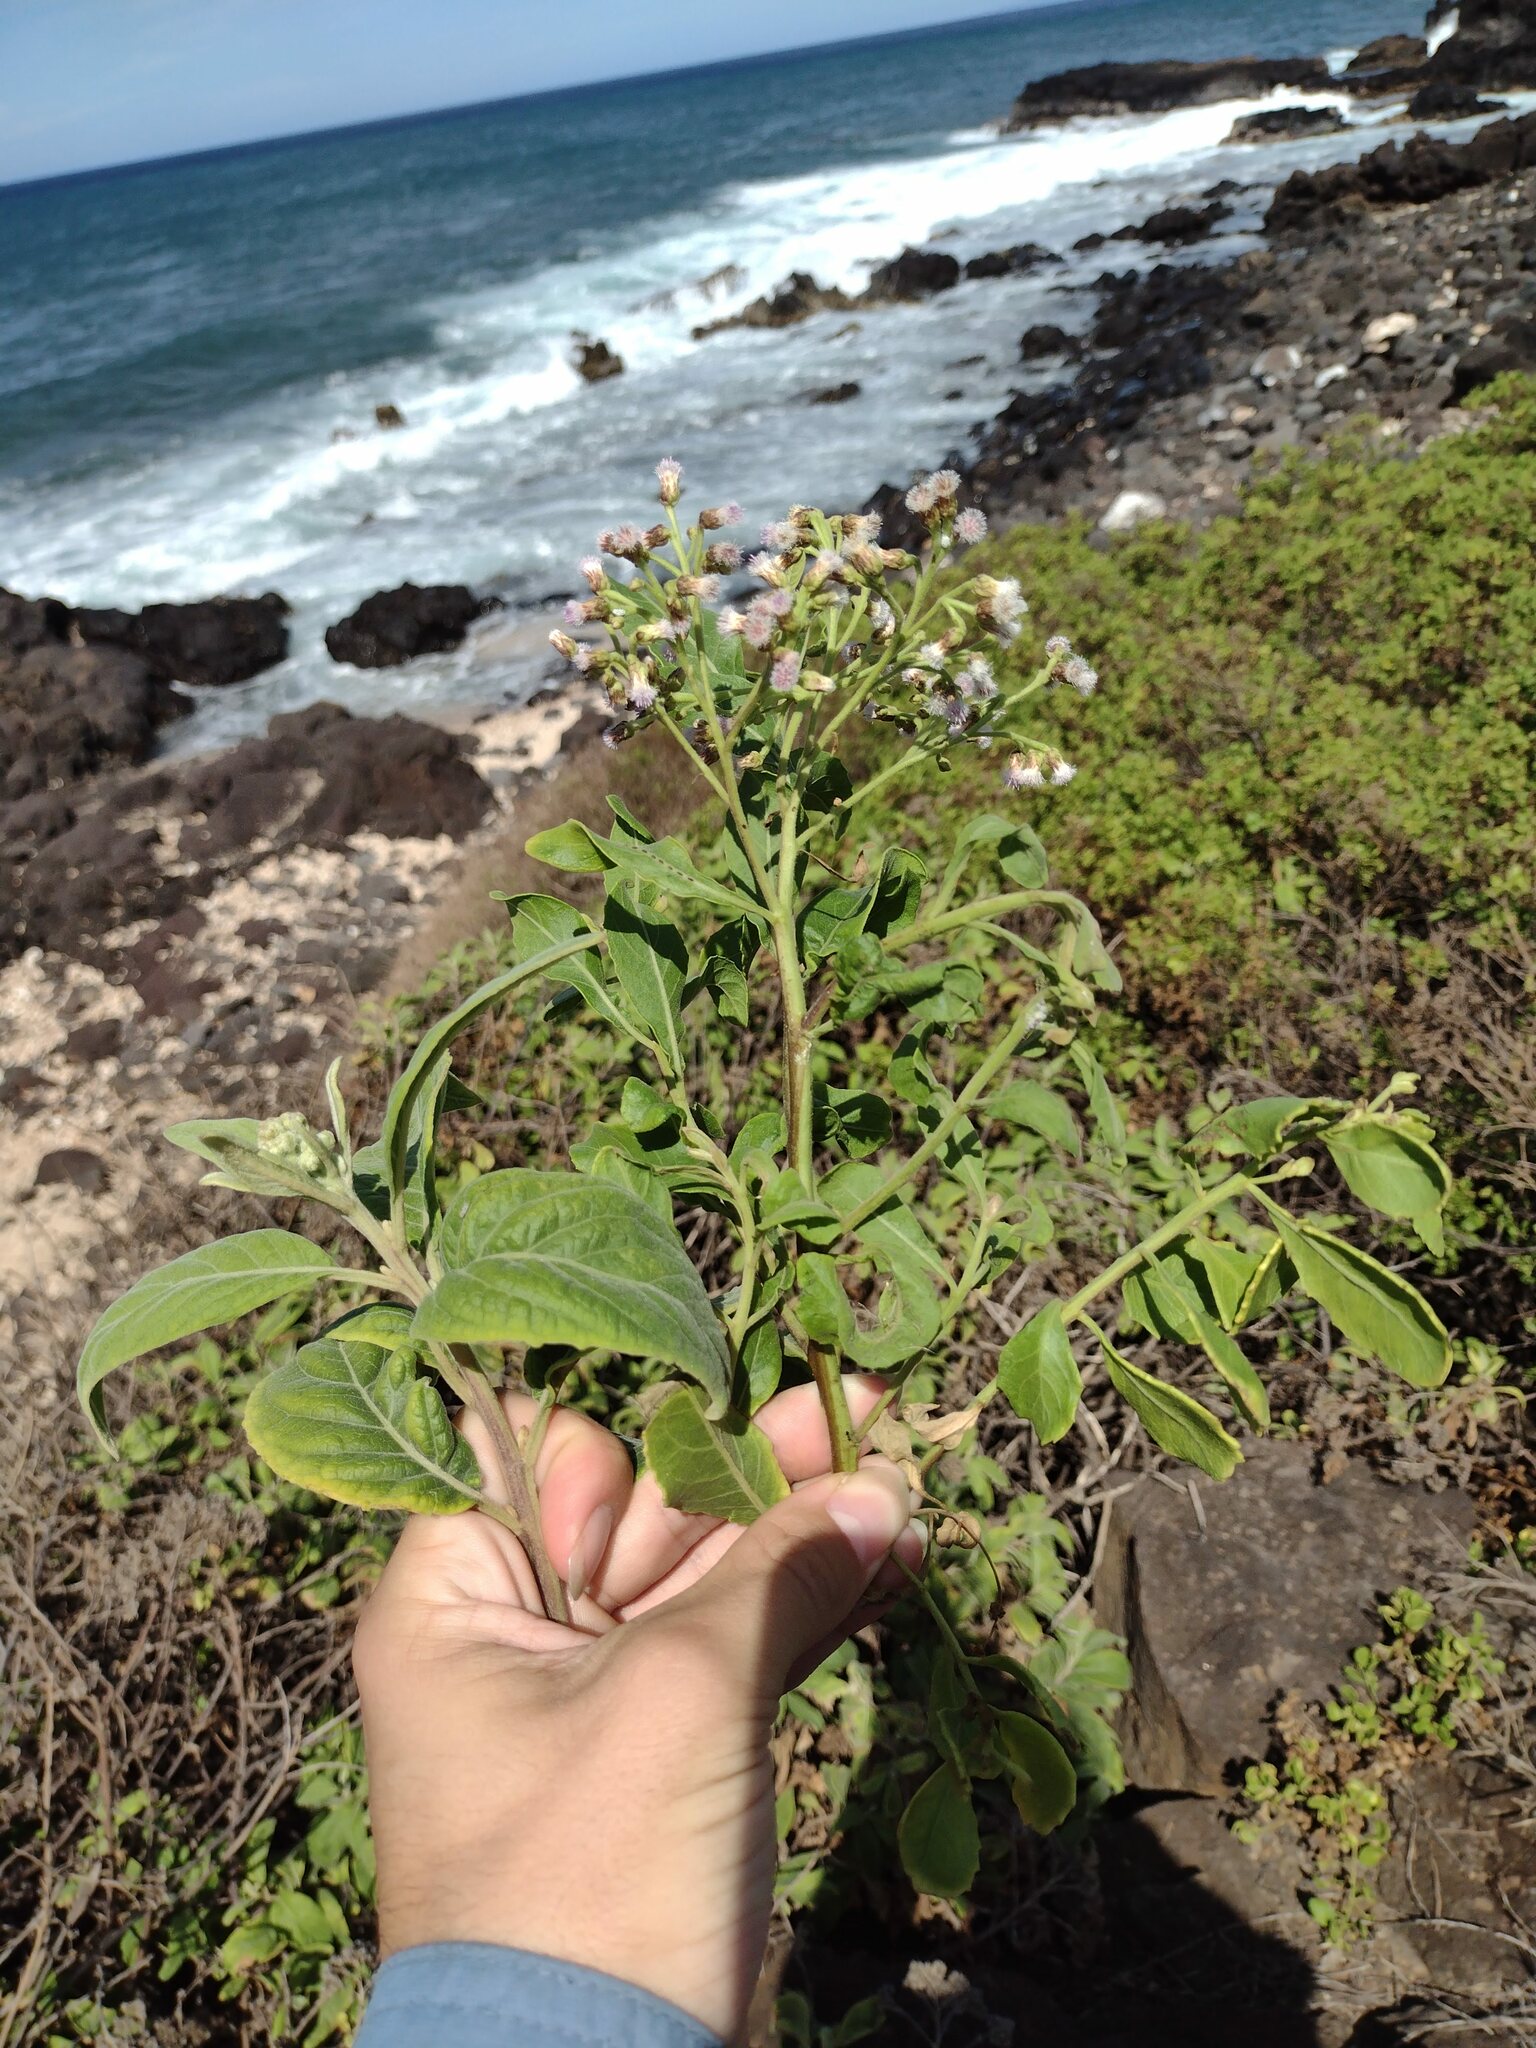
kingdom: Plantae
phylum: Tracheophyta
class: Magnoliopsida
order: Asterales
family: Asteraceae
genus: Pluchea
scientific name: Pluchea fosbergii
